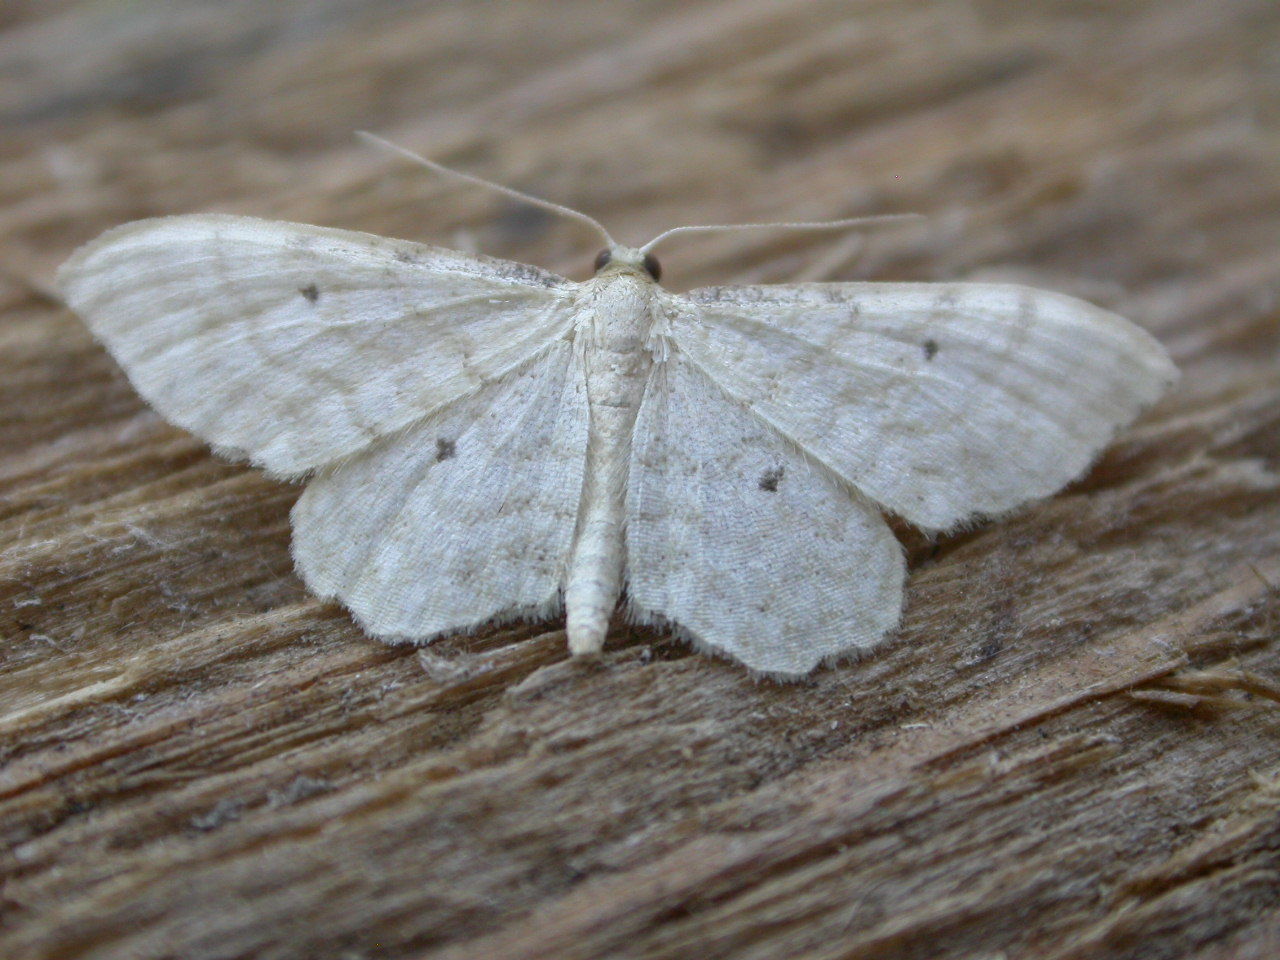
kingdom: Animalia
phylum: Arthropoda
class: Insecta
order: Lepidoptera
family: Geometridae
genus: Idaea
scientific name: Idaea fuscovenosa
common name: Dwarf cream wave
